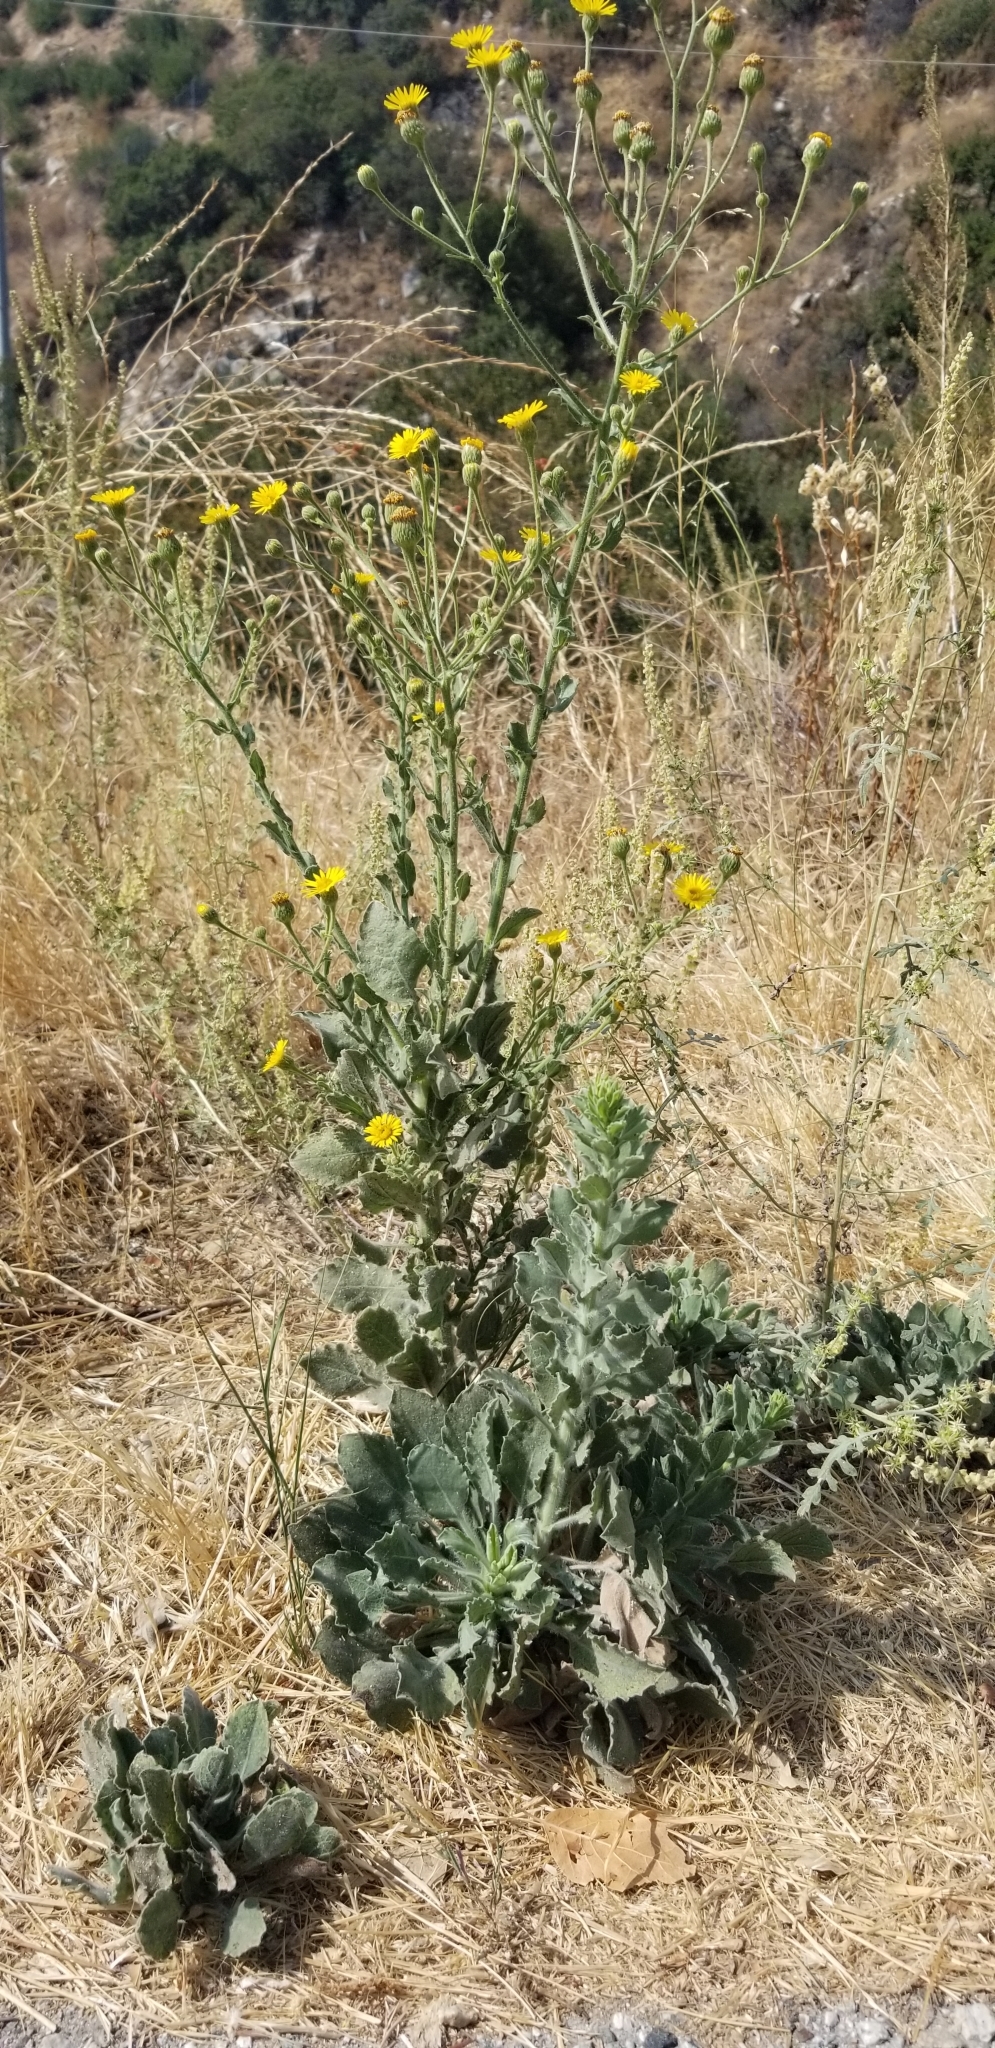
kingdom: Plantae
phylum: Tracheophyta
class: Magnoliopsida
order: Asterales
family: Asteraceae
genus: Heterotheca
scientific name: Heterotheca grandiflora
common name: Telegraphweed
